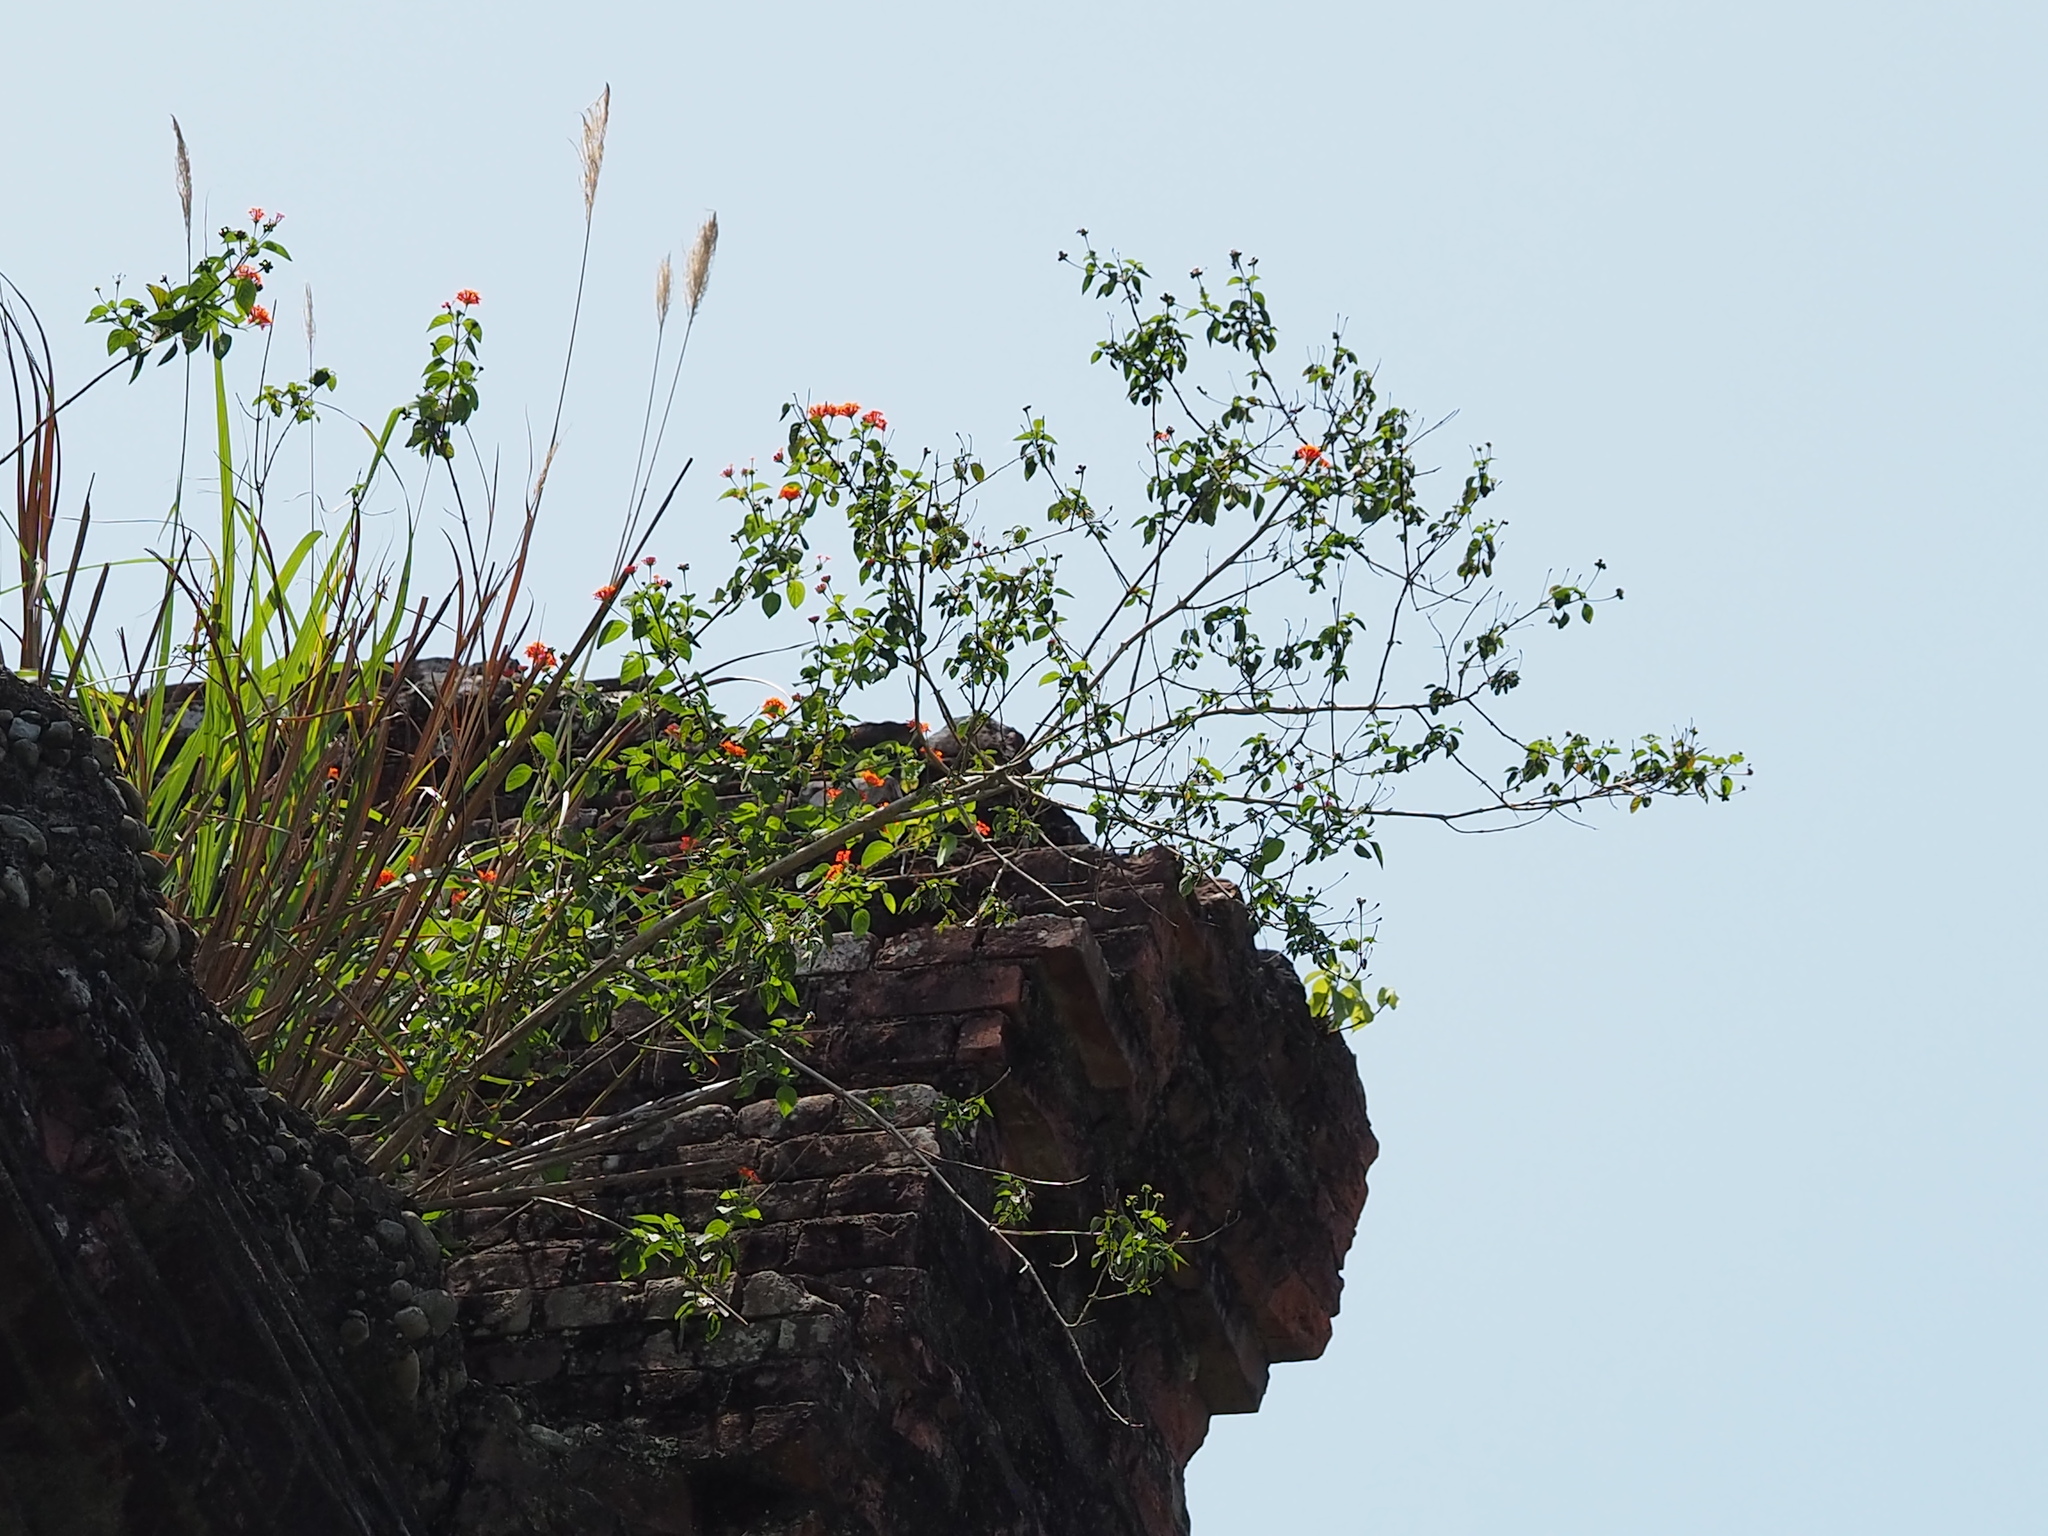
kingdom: Plantae
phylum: Tracheophyta
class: Magnoliopsida
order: Lamiales
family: Verbenaceae
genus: Lantana
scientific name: Lantana camara
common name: Lantana
